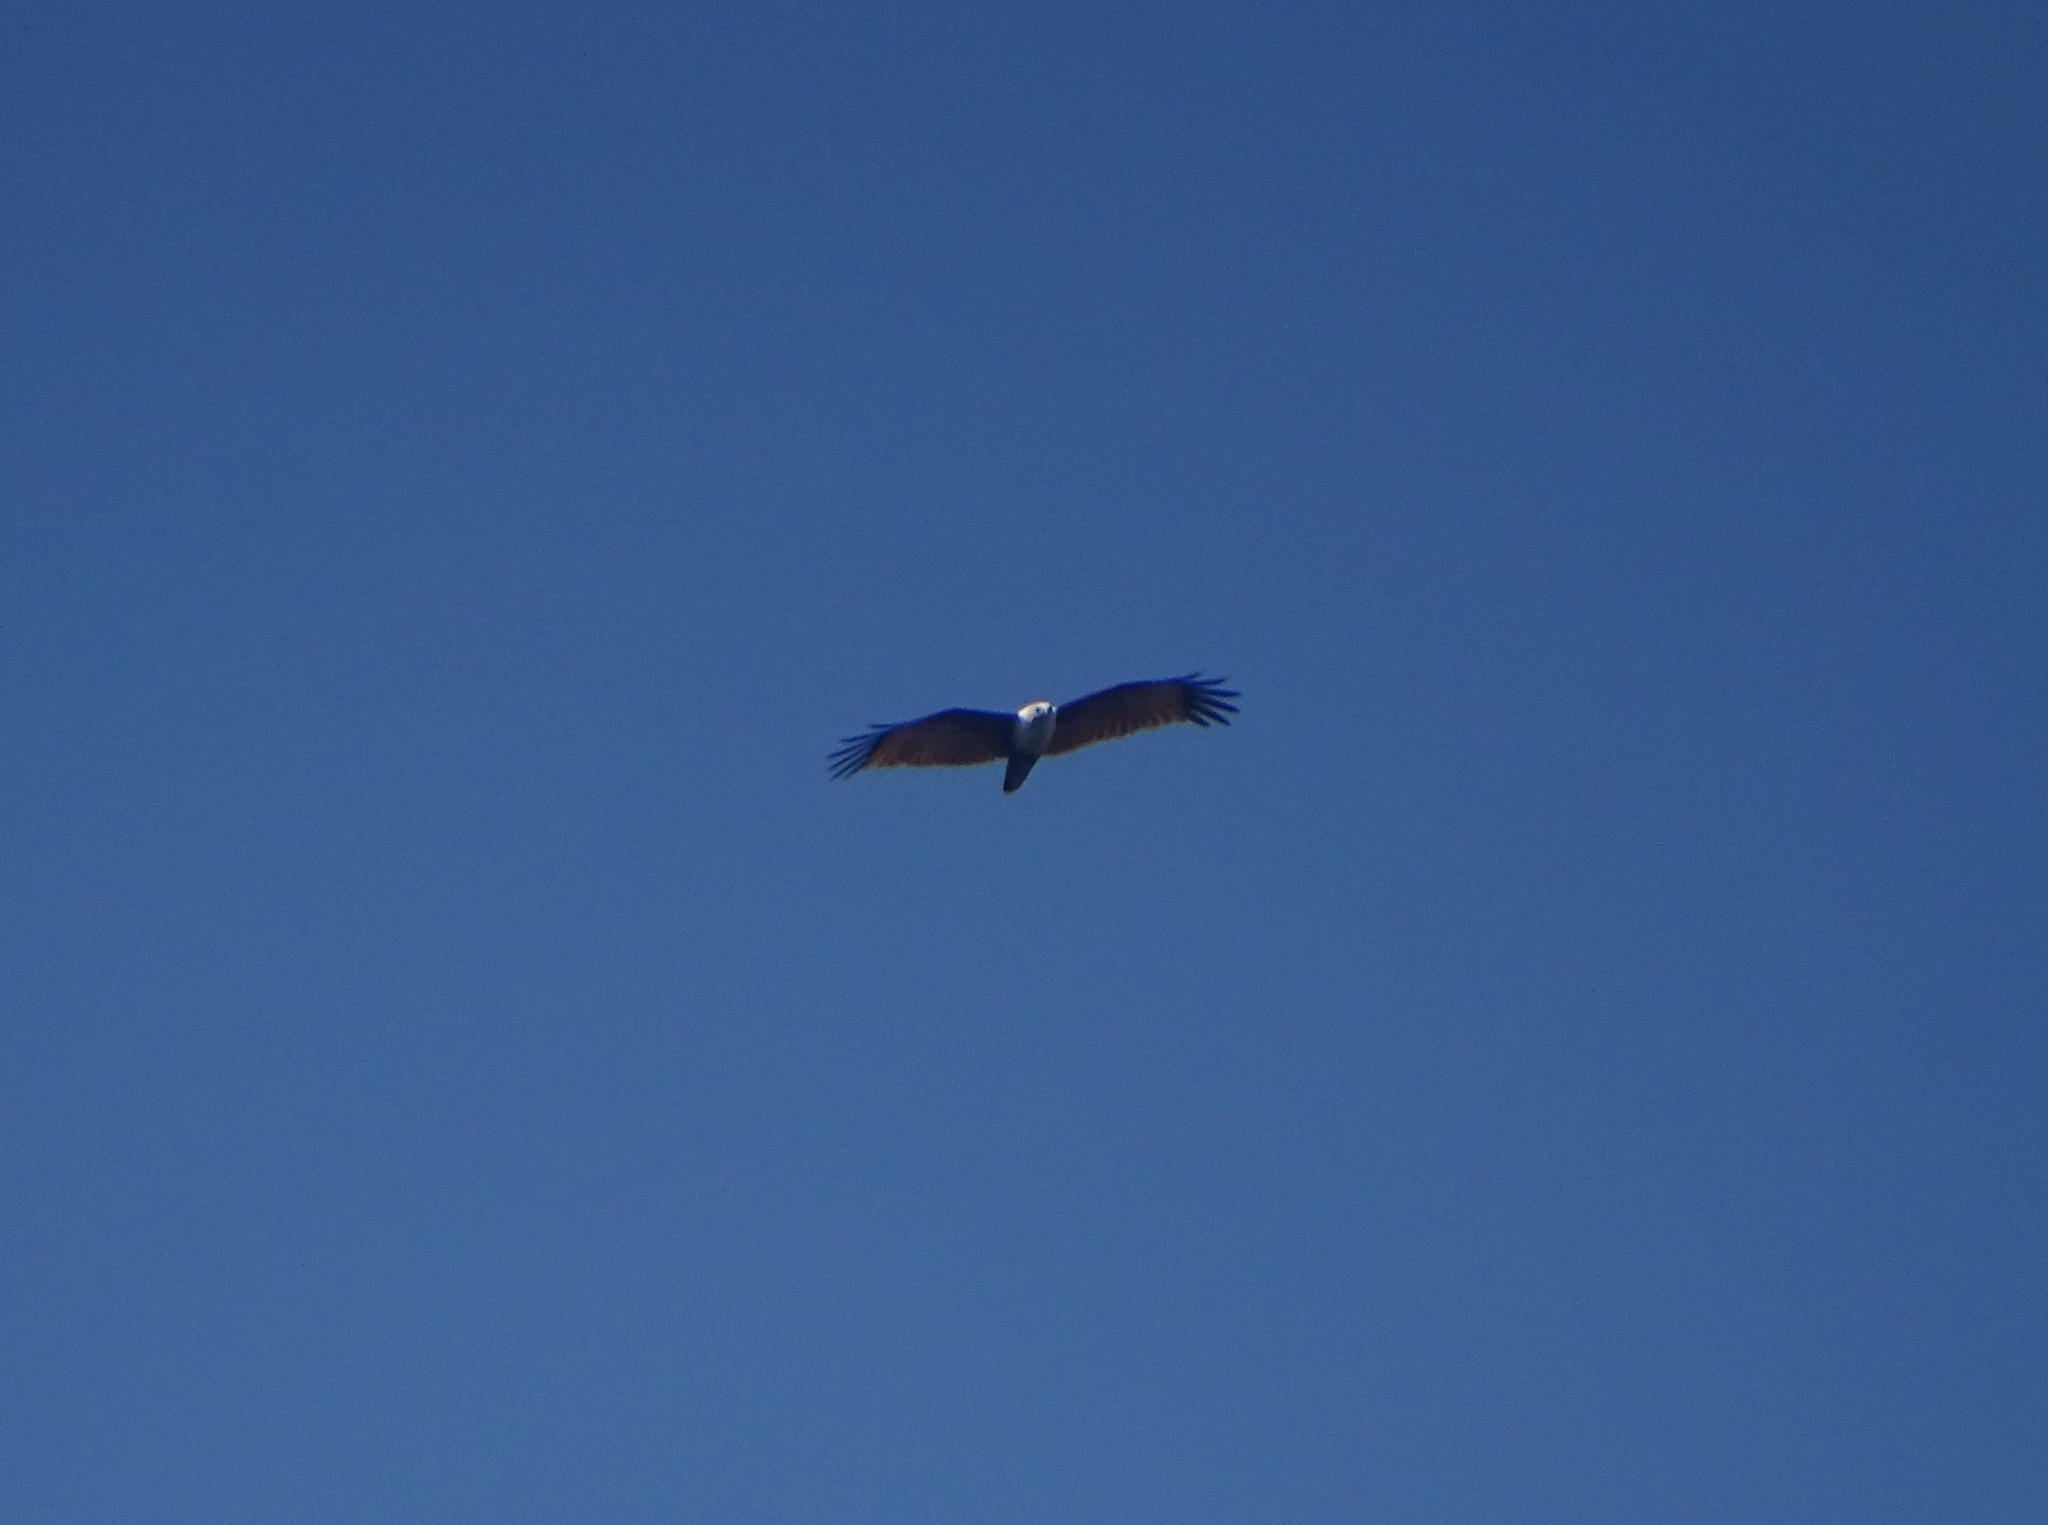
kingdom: Animalia
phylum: Chordata
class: Aves
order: Accipitriformes
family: Accipitridae
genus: Haliastur
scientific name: Haliastur indus
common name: Brahminy kite
